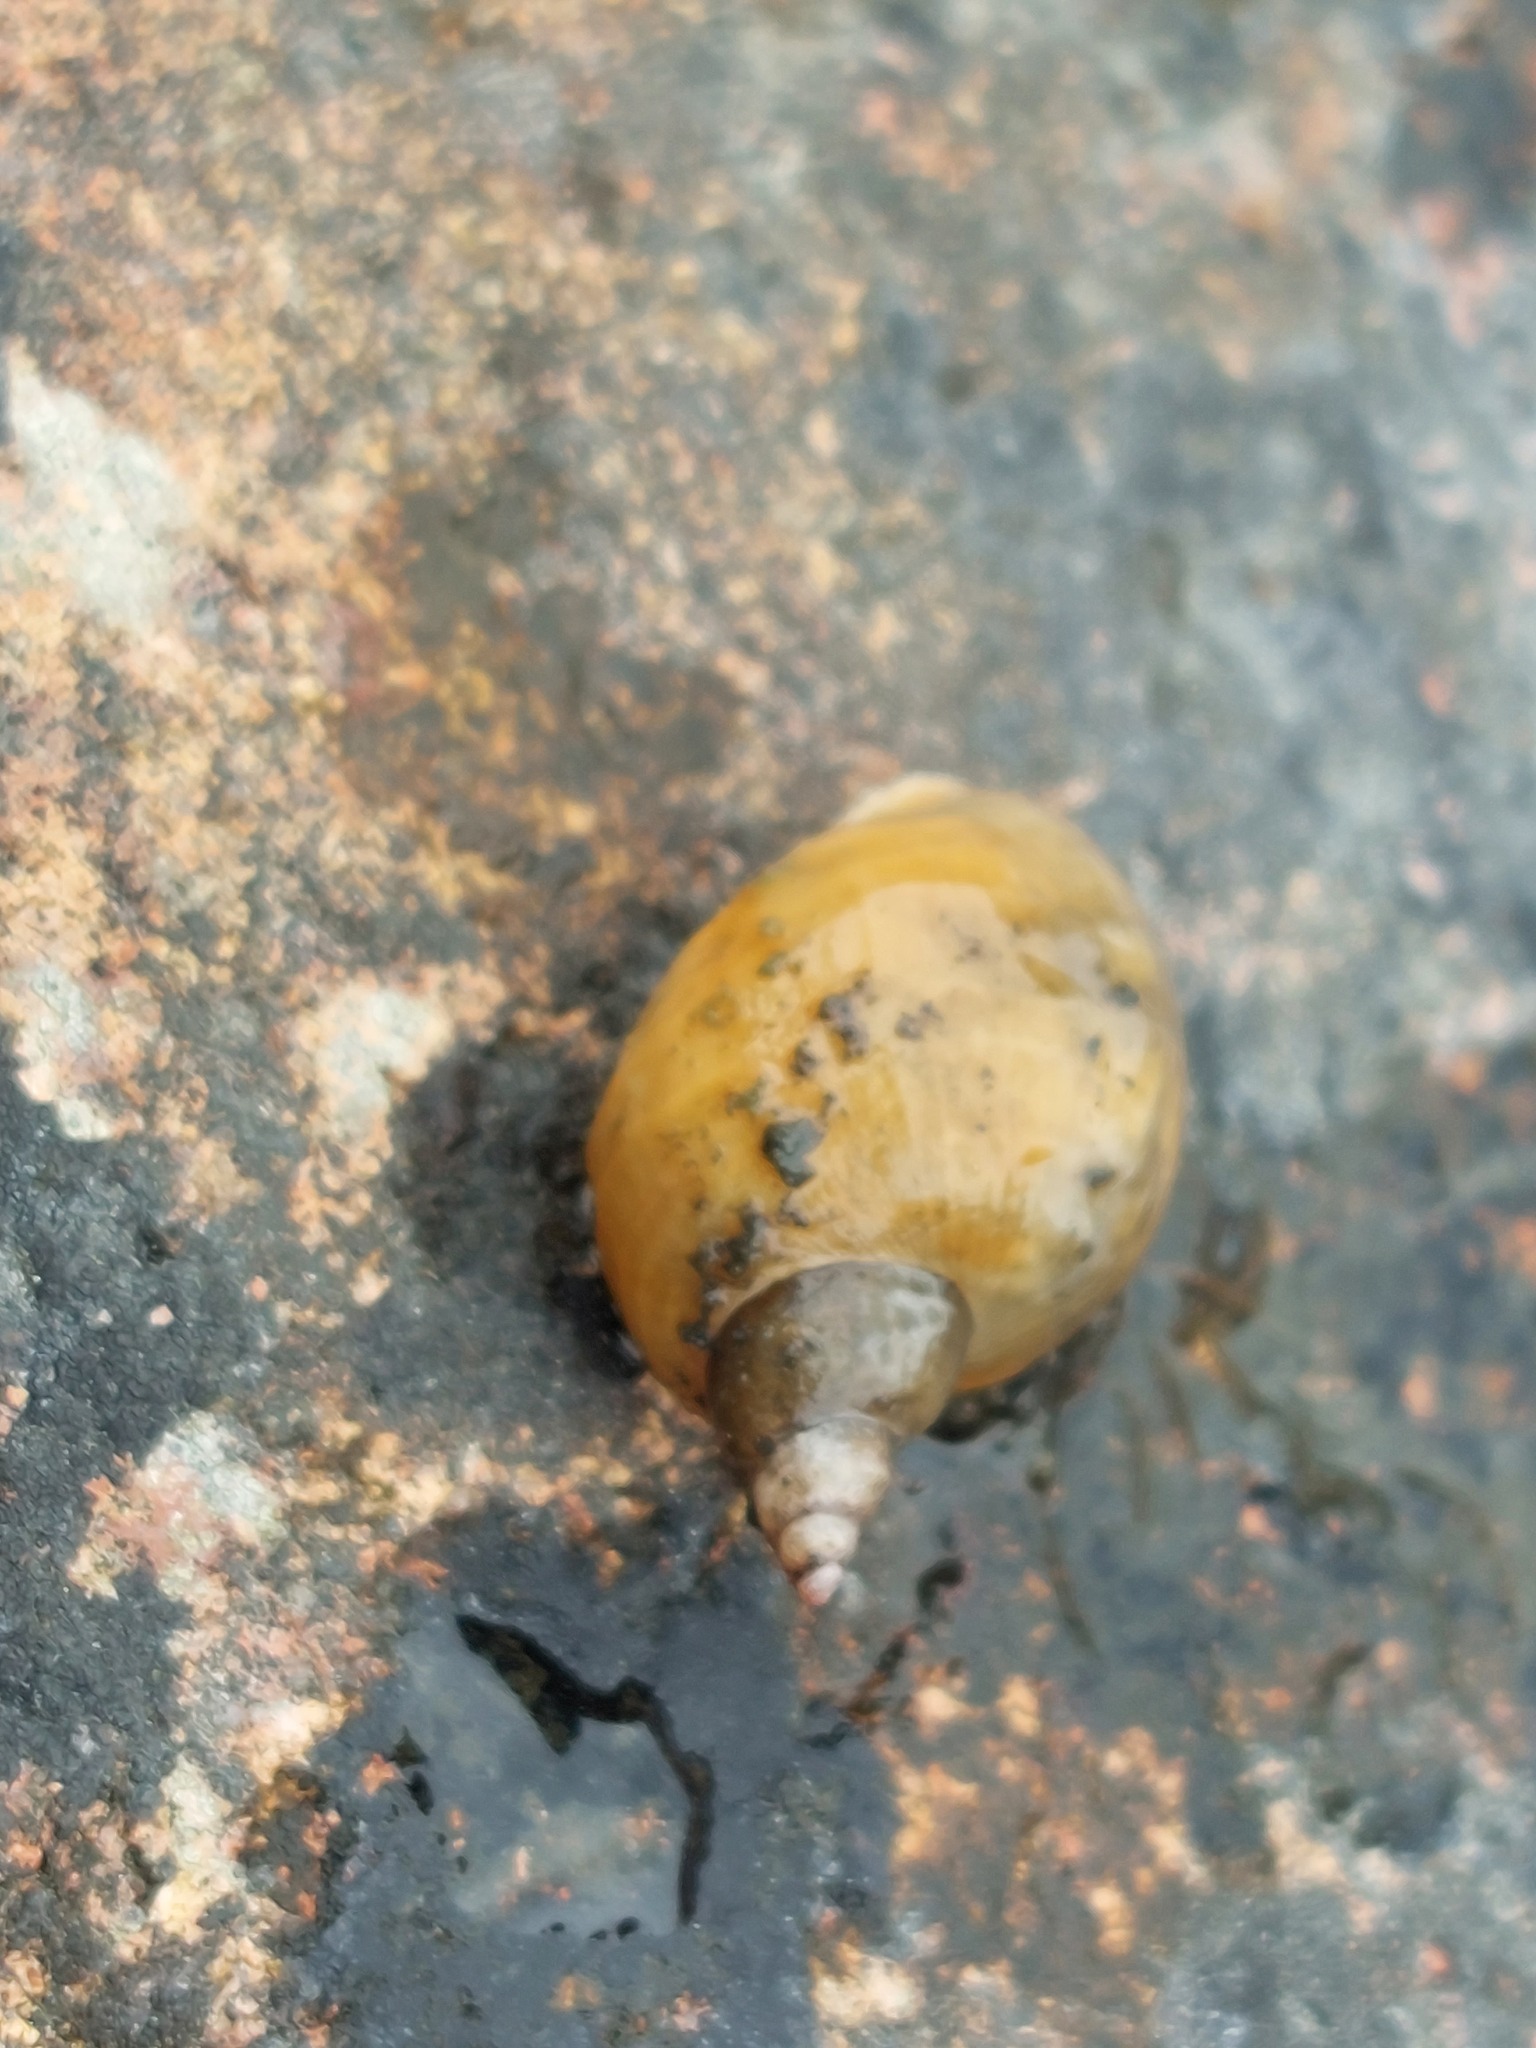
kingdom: Animalia
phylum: Mollusca
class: Gastropoda
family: Lymnaeidae
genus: Lymnaea
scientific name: Lymnaea stagnalis
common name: Great pond snail
